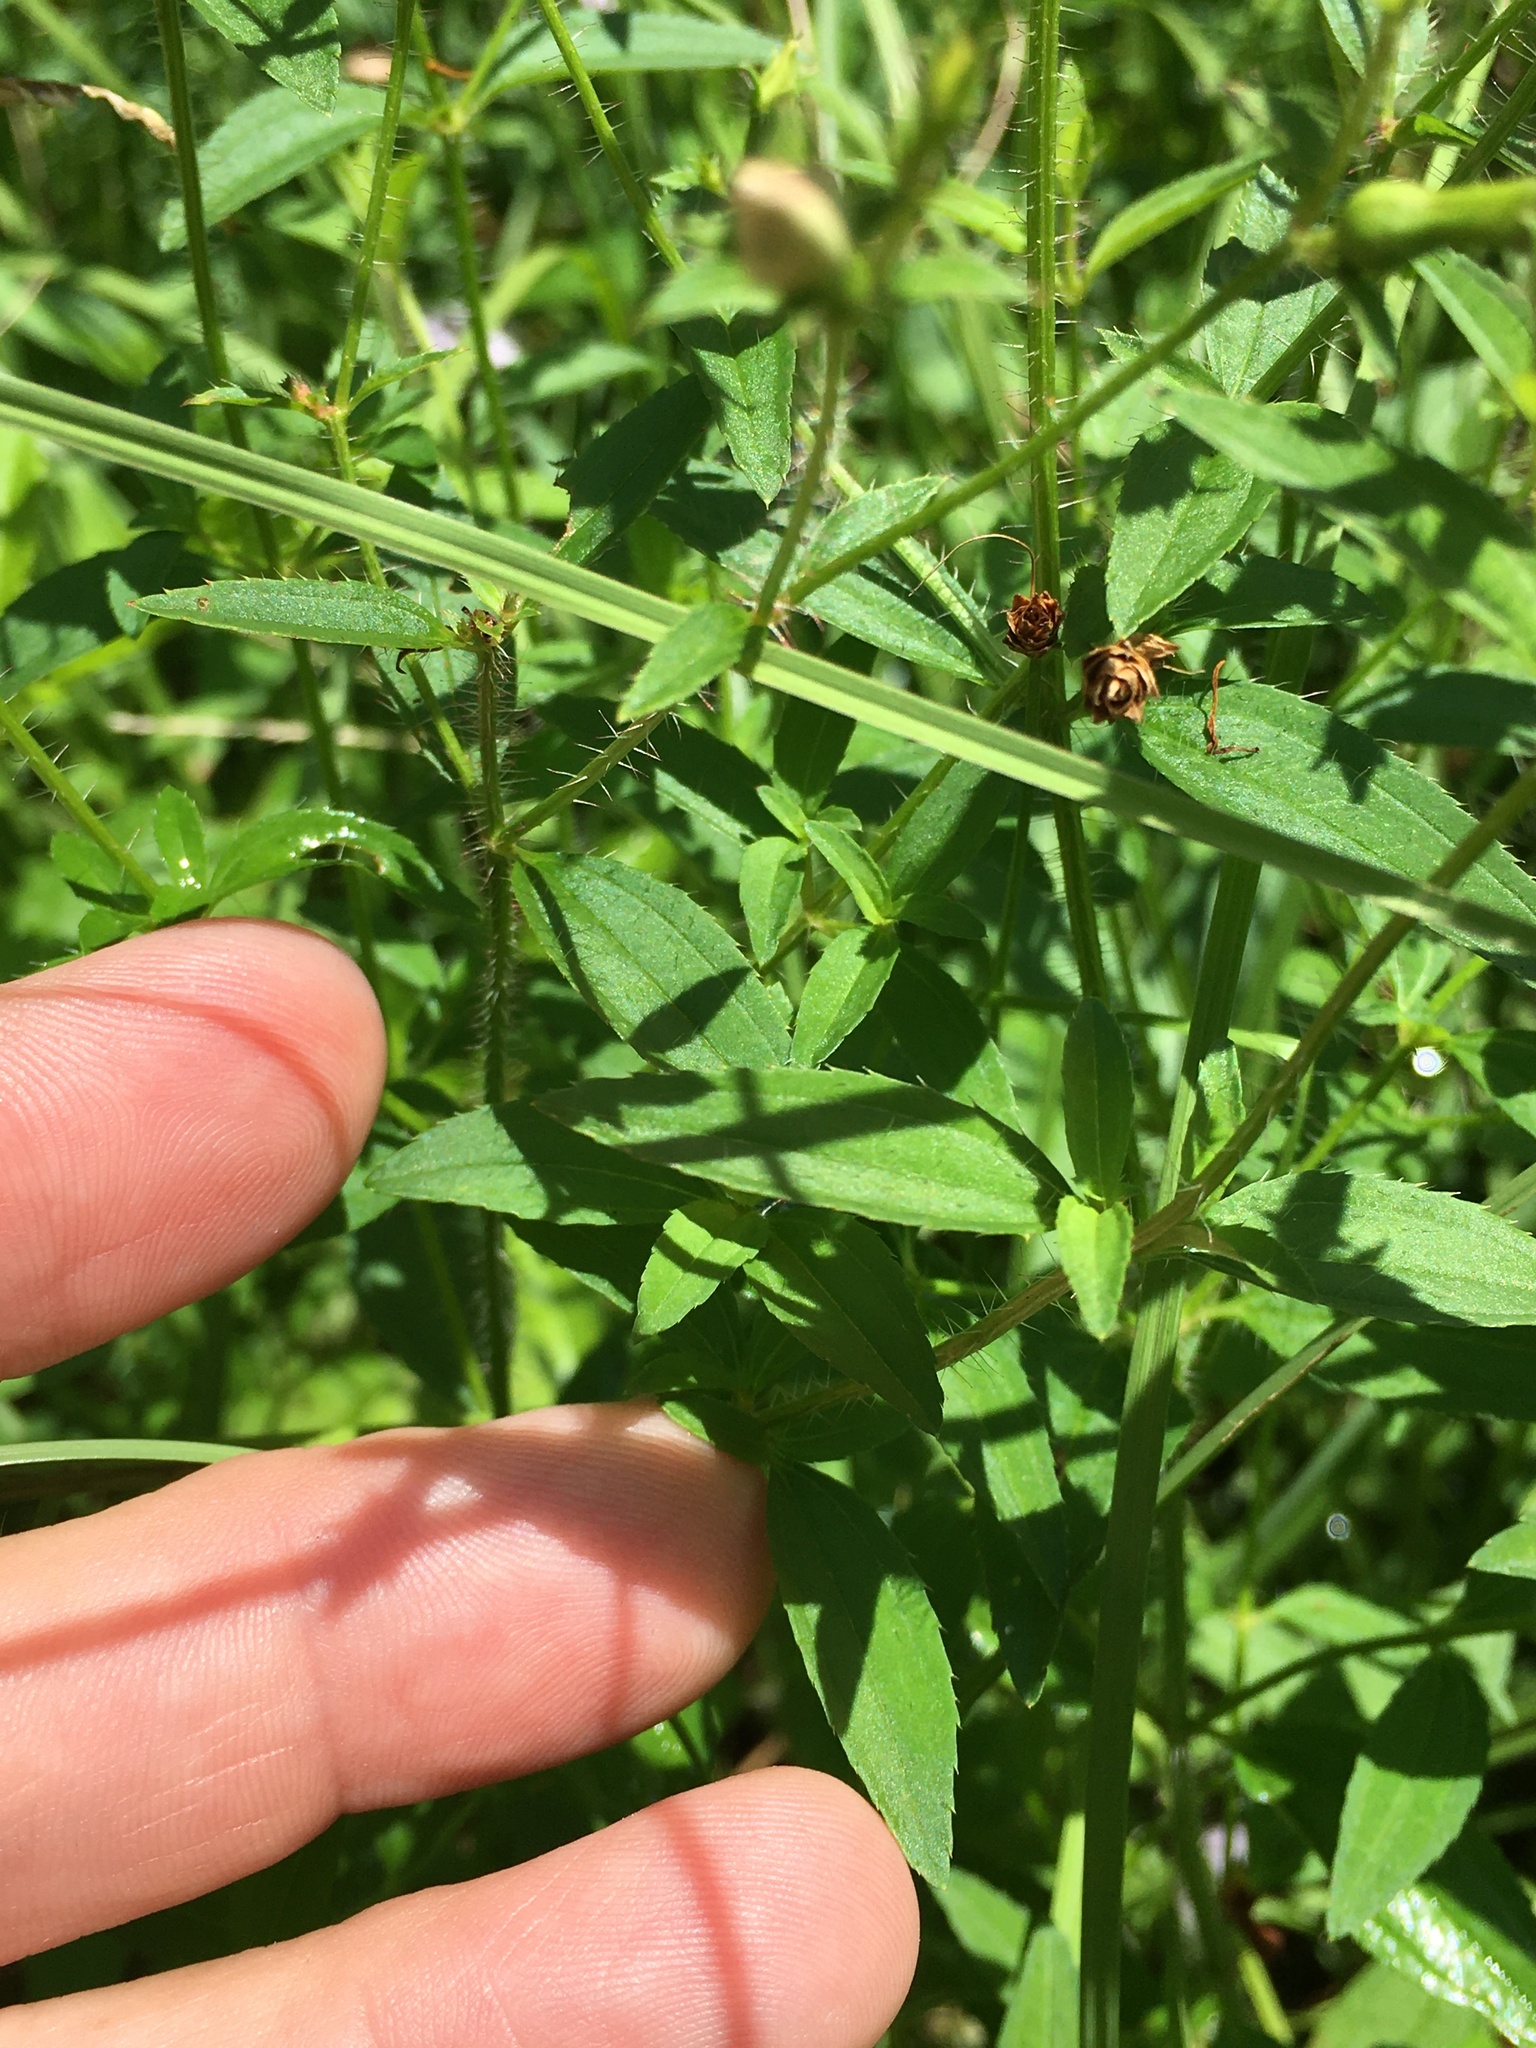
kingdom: Plantae
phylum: Tracheophyta
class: Magnoliopsida
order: Myrtales
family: Melastomataceae
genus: Rhexia
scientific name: Rhexia mariana
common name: Dull meadow-pitcher
